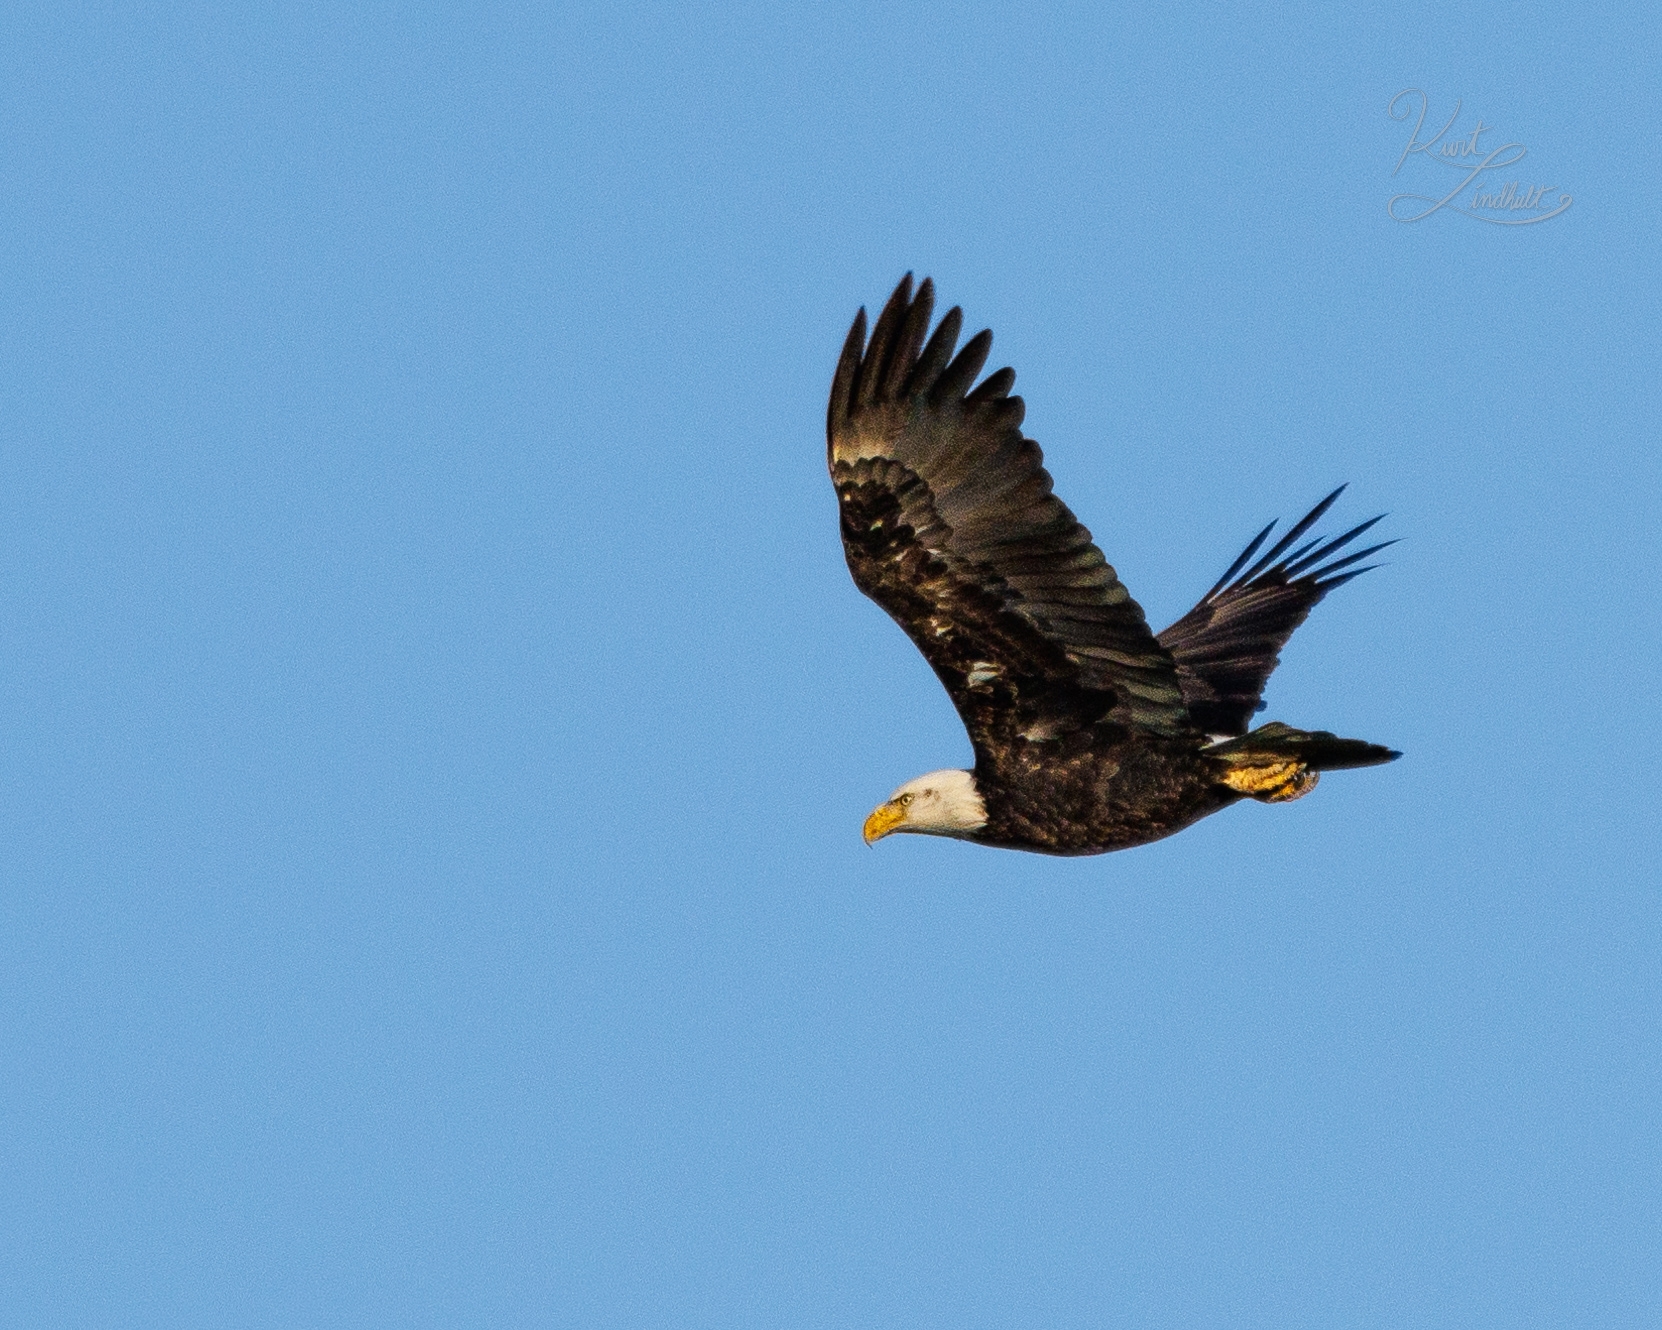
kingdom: Animalia
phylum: Chordata
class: Aves
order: Accipitriformes
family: Accipitridae
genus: Haliaeetus
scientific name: Haliaeetus leucocephalus
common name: Bald eagle
